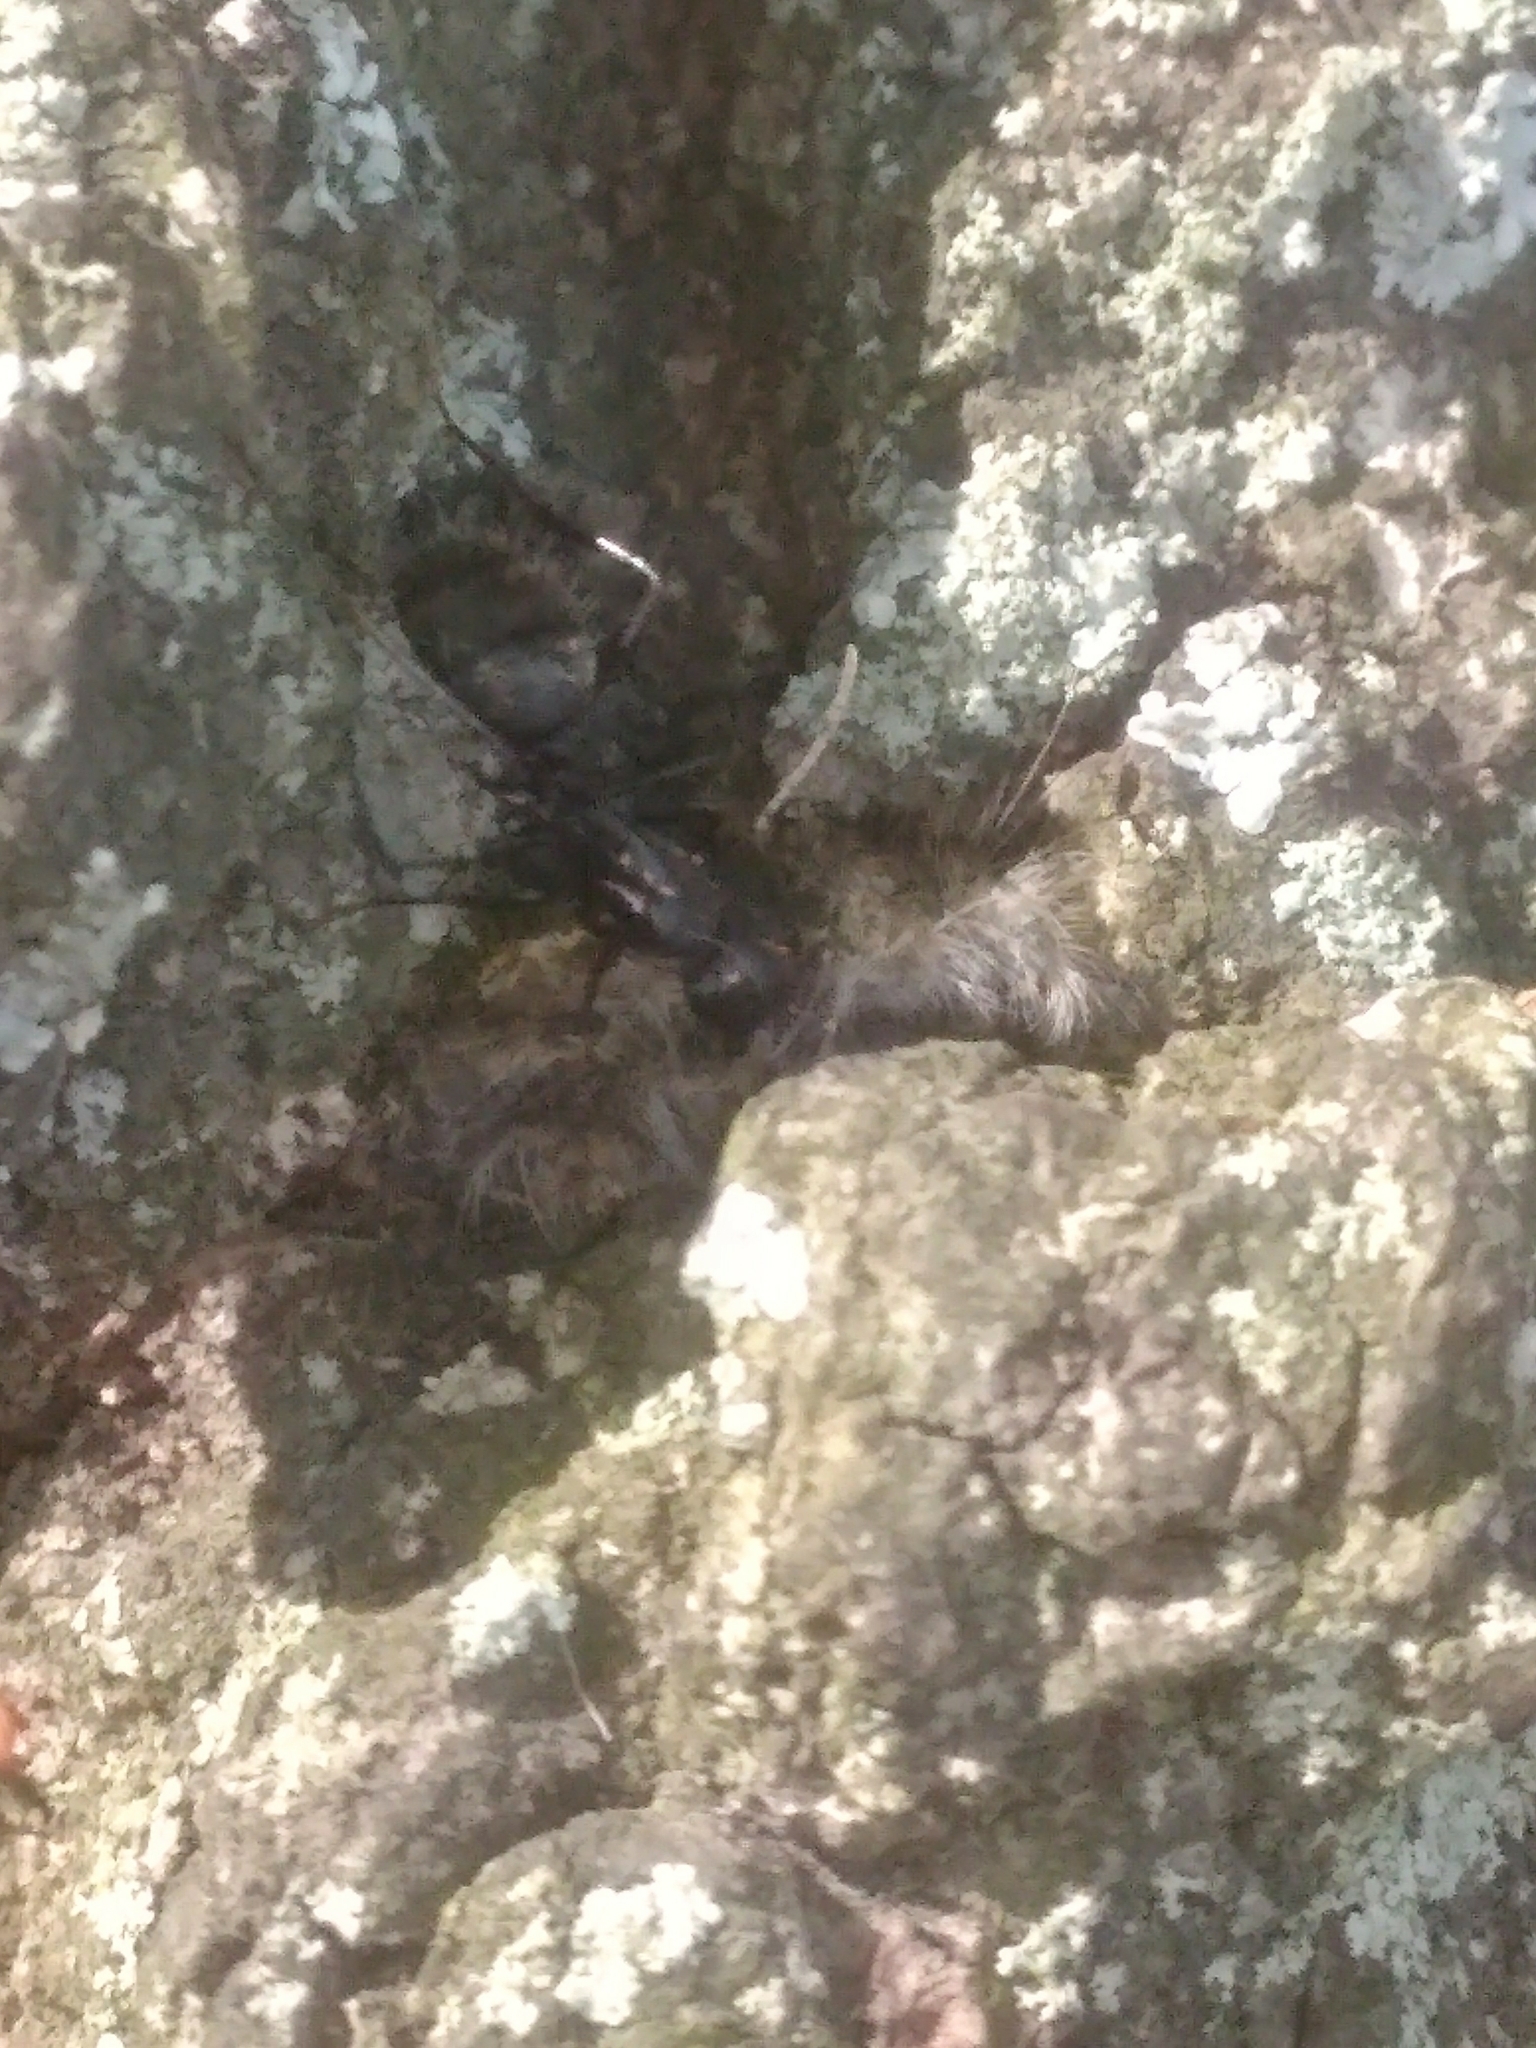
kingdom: Animalia
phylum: Arthropoda
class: Insecta
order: Hymenoptera
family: Formicidae
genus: Camponotus
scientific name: Camponotus pennsylvanicus
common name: Black carpenter ant
